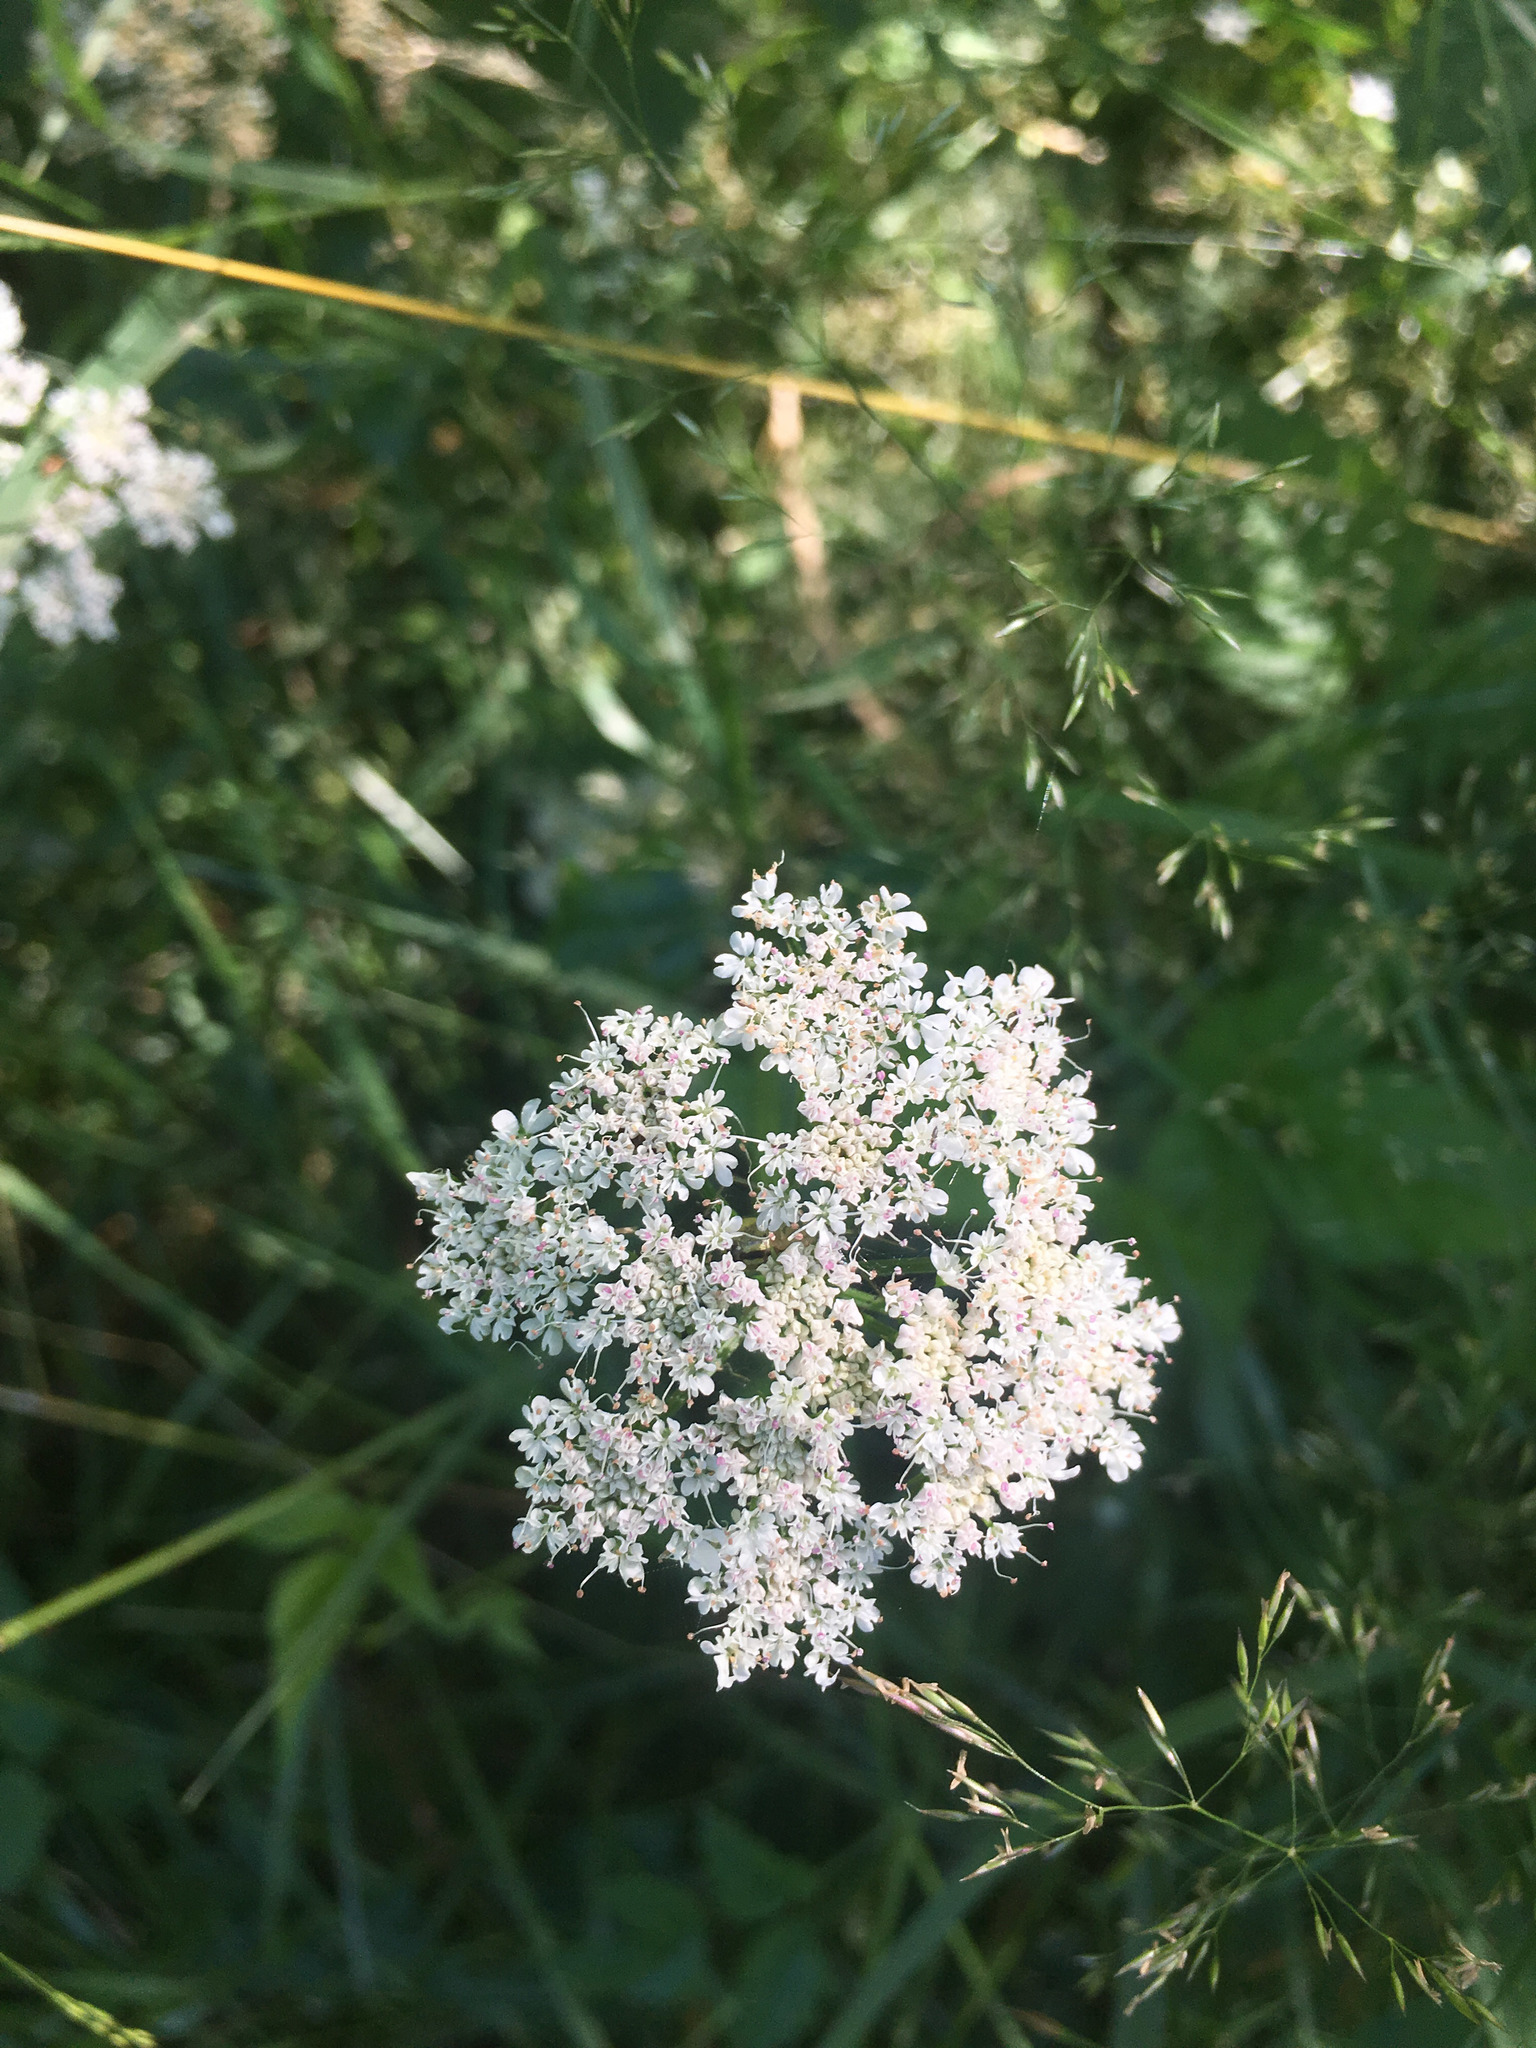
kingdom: Plantae
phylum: Tracheophyta
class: Magnoliopsida
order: Apiales
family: Apiaceae
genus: Daucus
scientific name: Daucus carota
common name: Wild carrot
